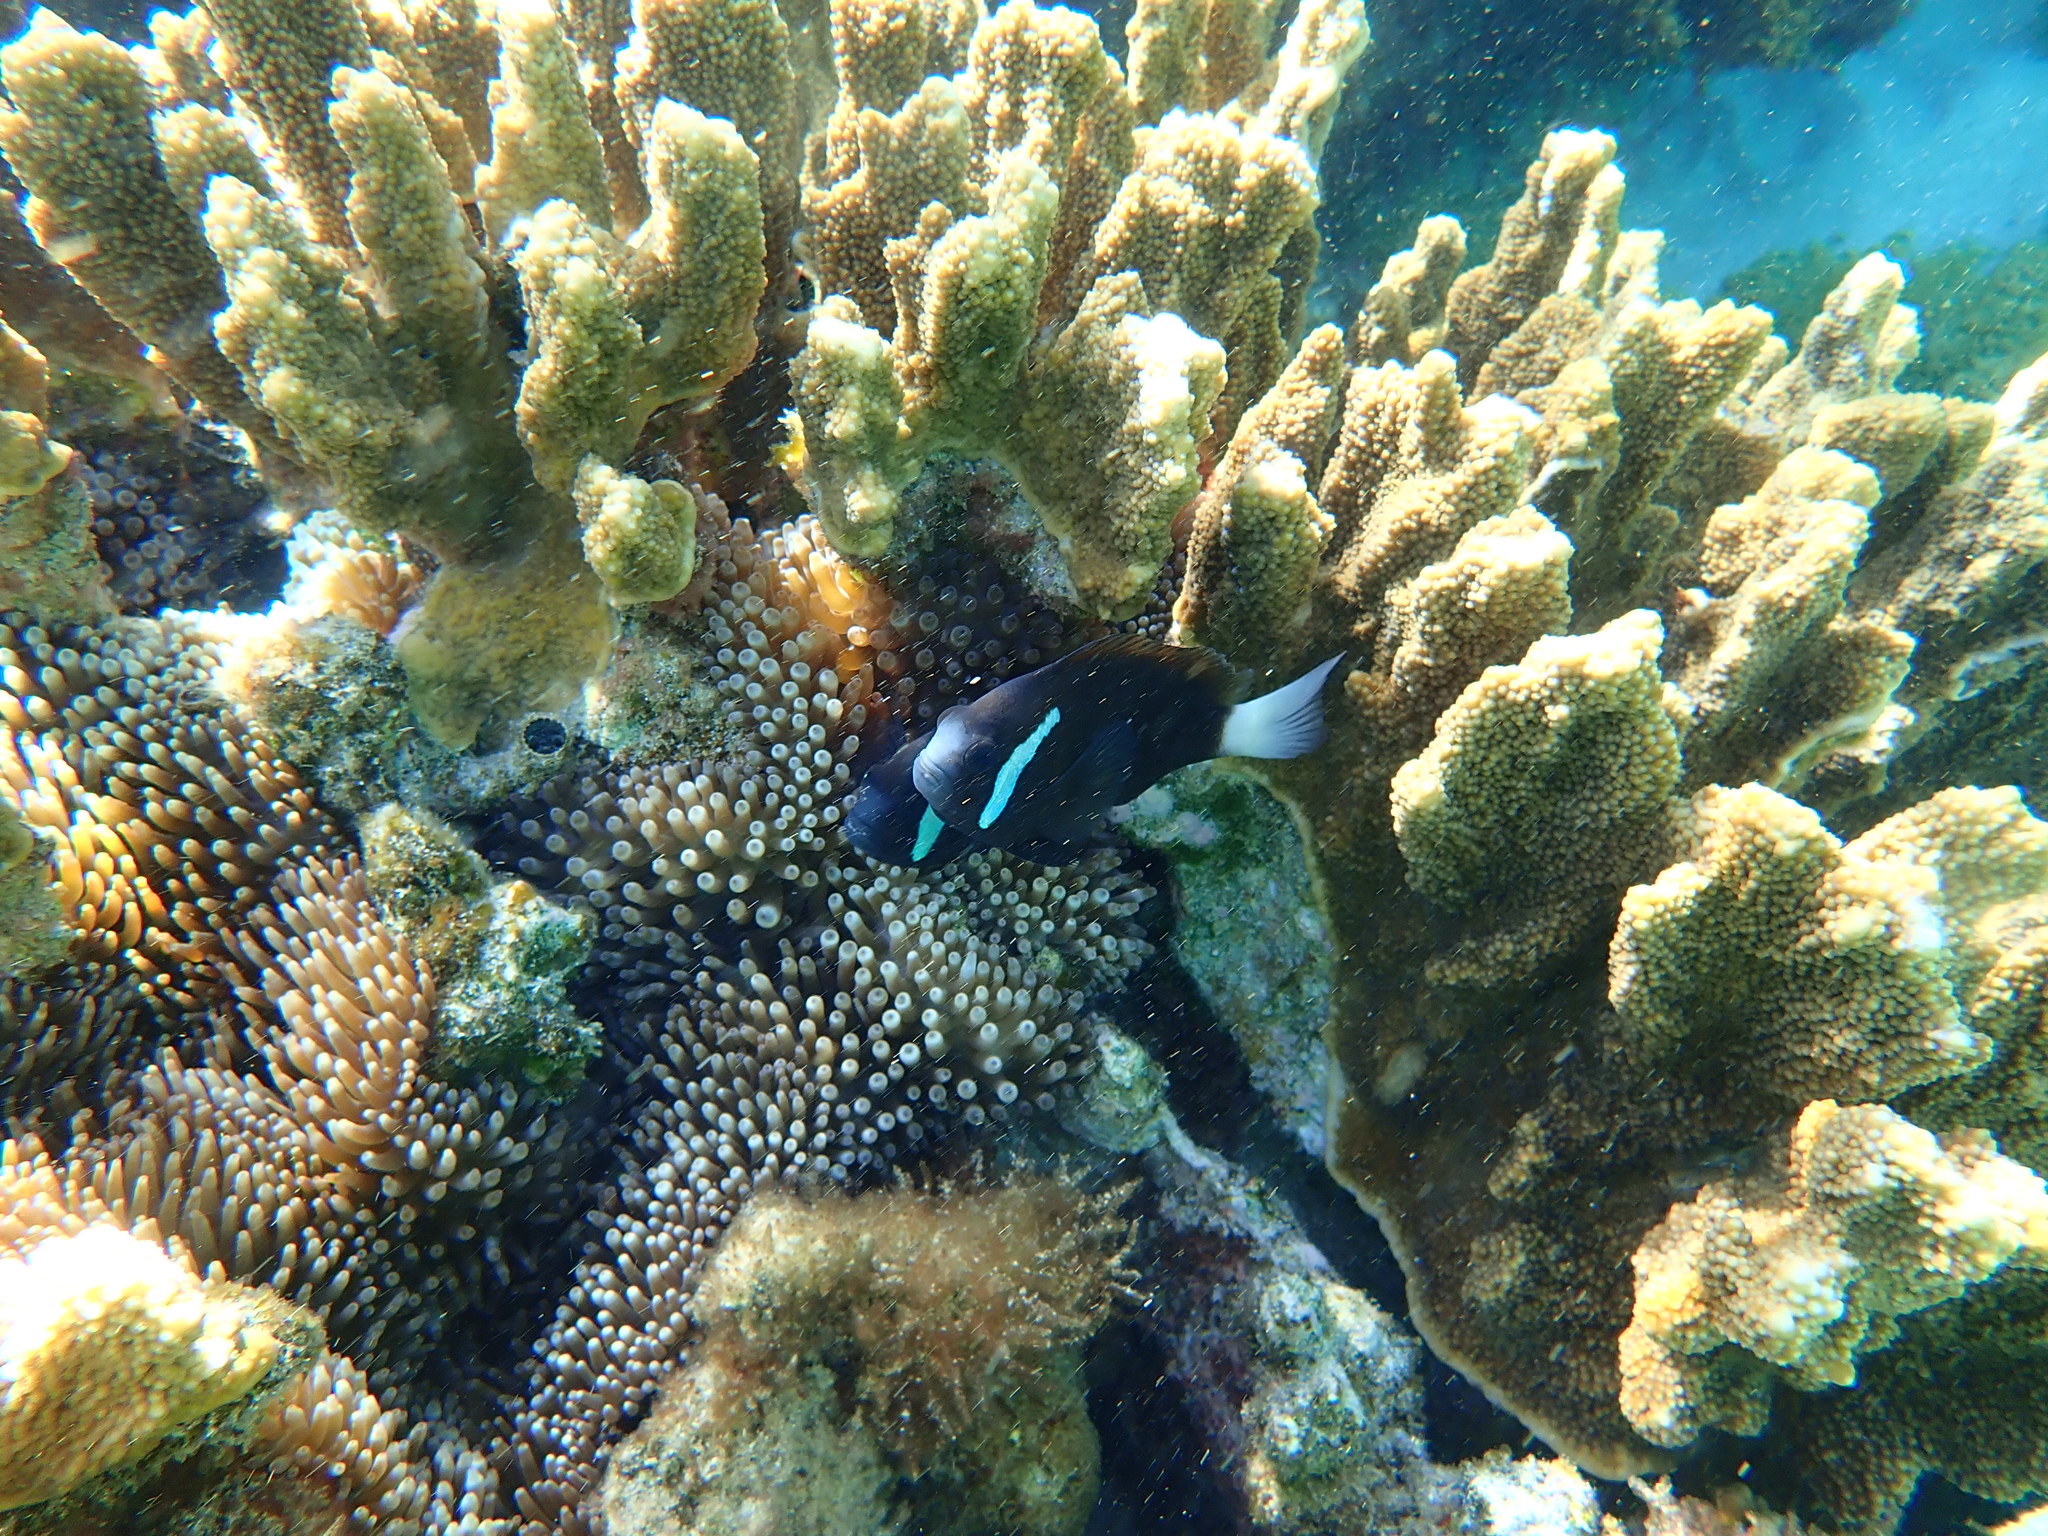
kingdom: Animalia
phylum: Chordata
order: Perciformes
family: Pomacentridae
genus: Amphiprion
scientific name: Amphiprion mccullochi
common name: Mcculloch's anemonefish
